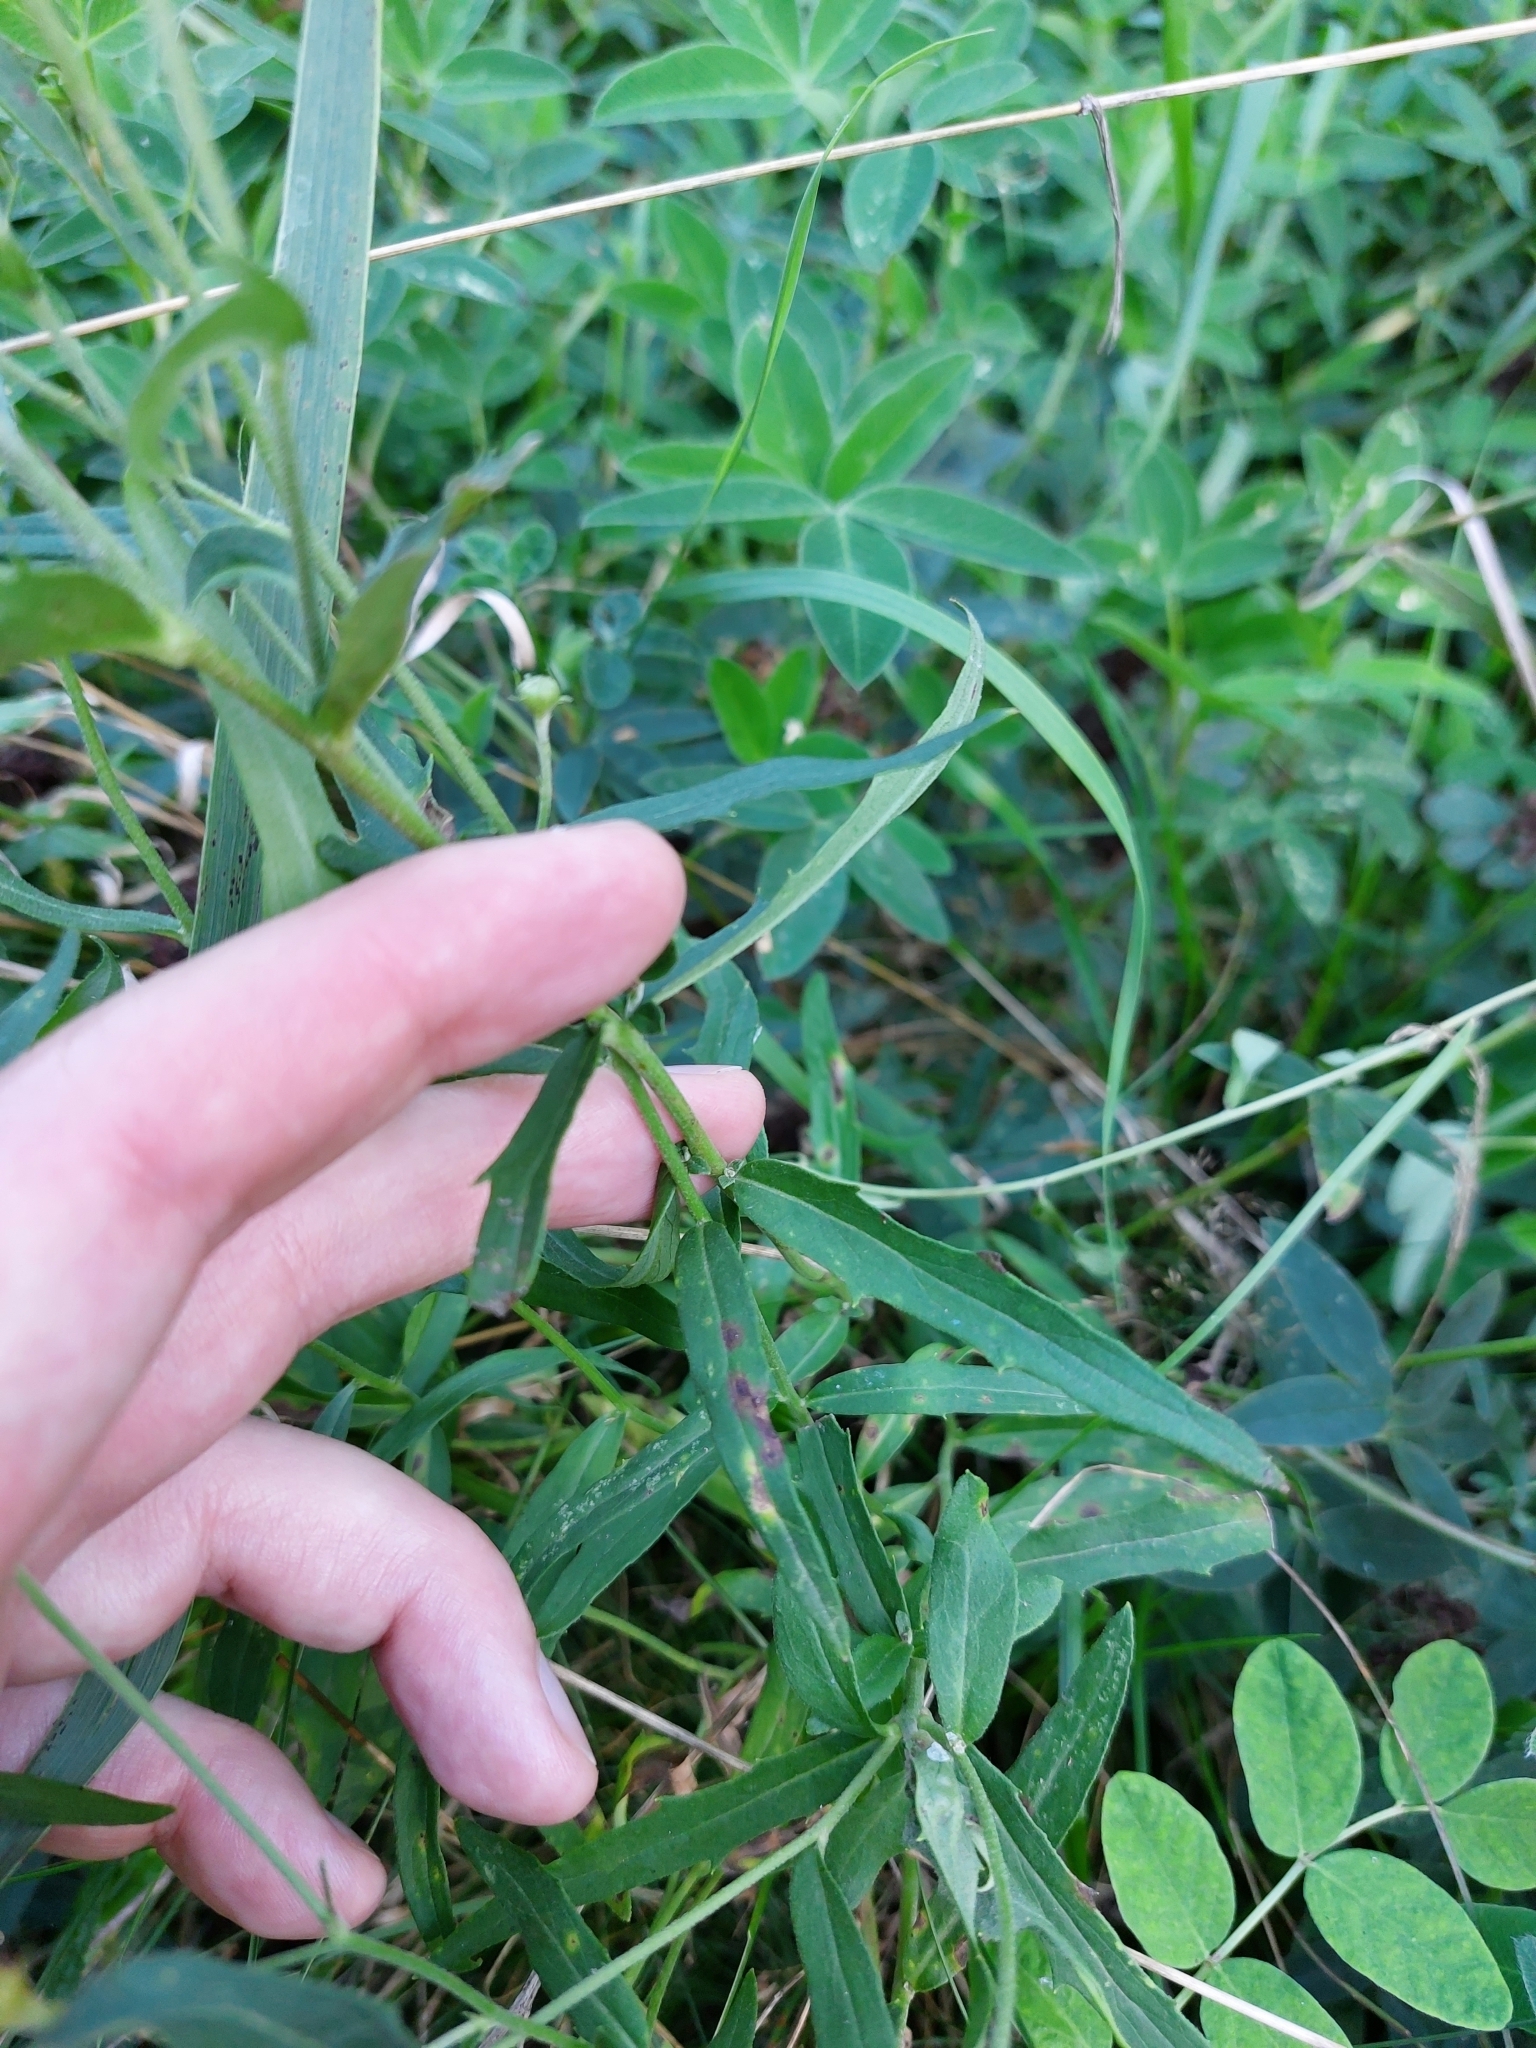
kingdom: Plantae
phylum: Tracheophyta
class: Magnoliopsida
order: Asterales
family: Asteraceae
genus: Hieracium
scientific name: Hieracium umbellatum
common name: Northern hawkweed
